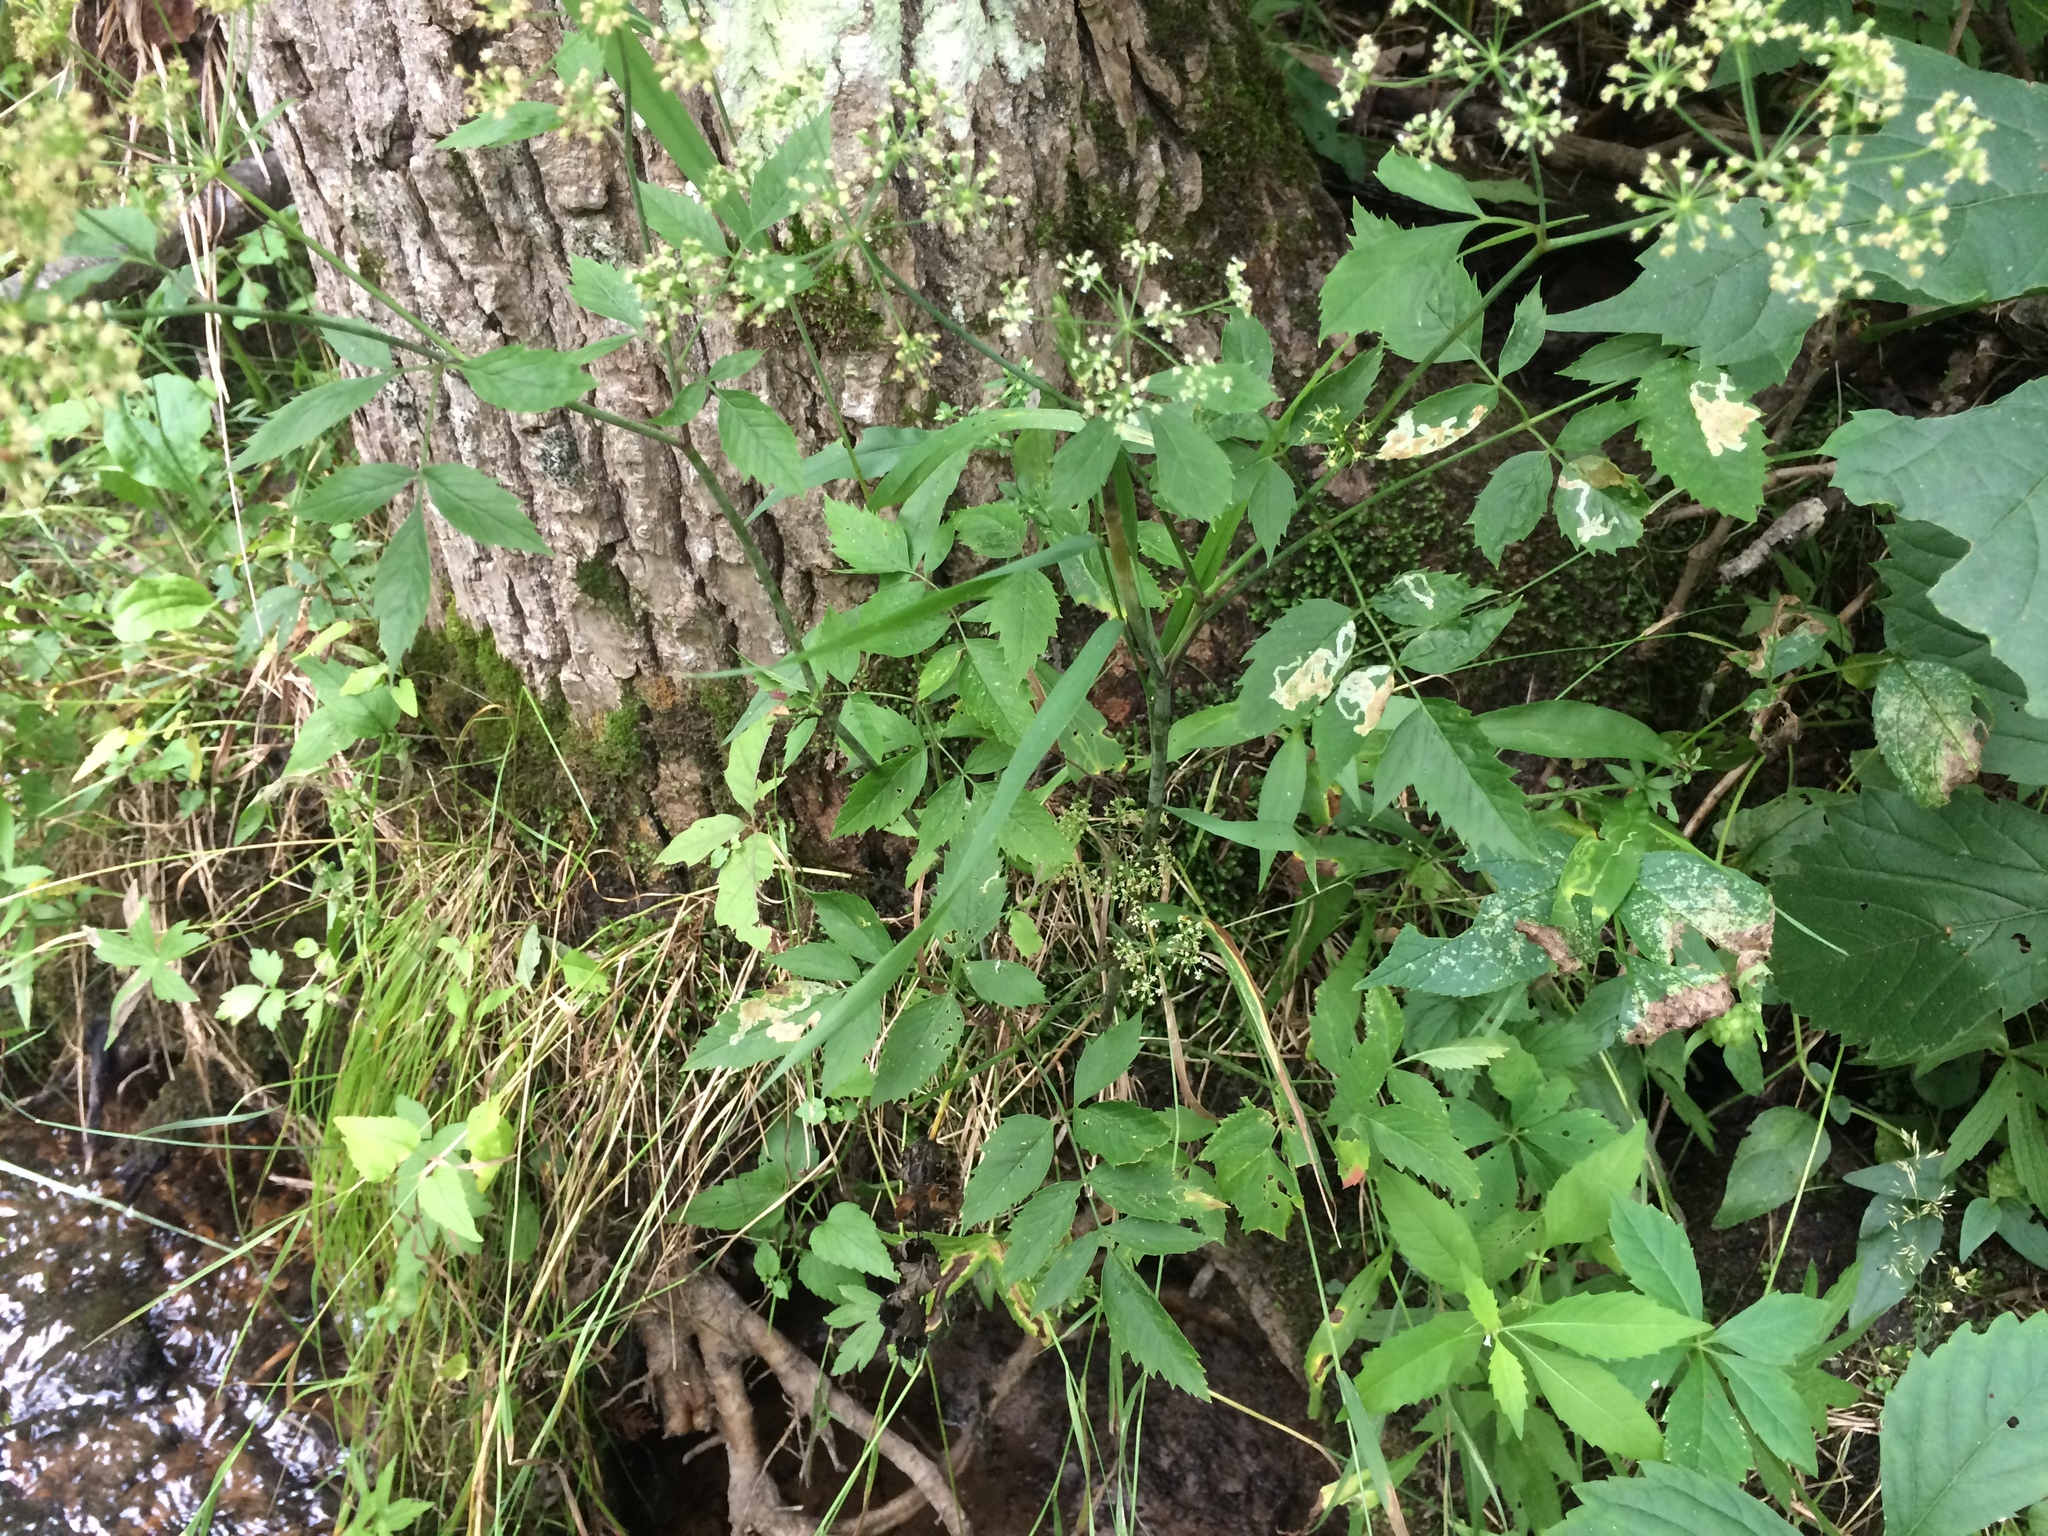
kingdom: Plantae
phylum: Tracheophyta
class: Magnoliopsida
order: Apiales
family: Apiaceae
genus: Cicuta
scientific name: Cicuta maculata
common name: Spotted cowbane
